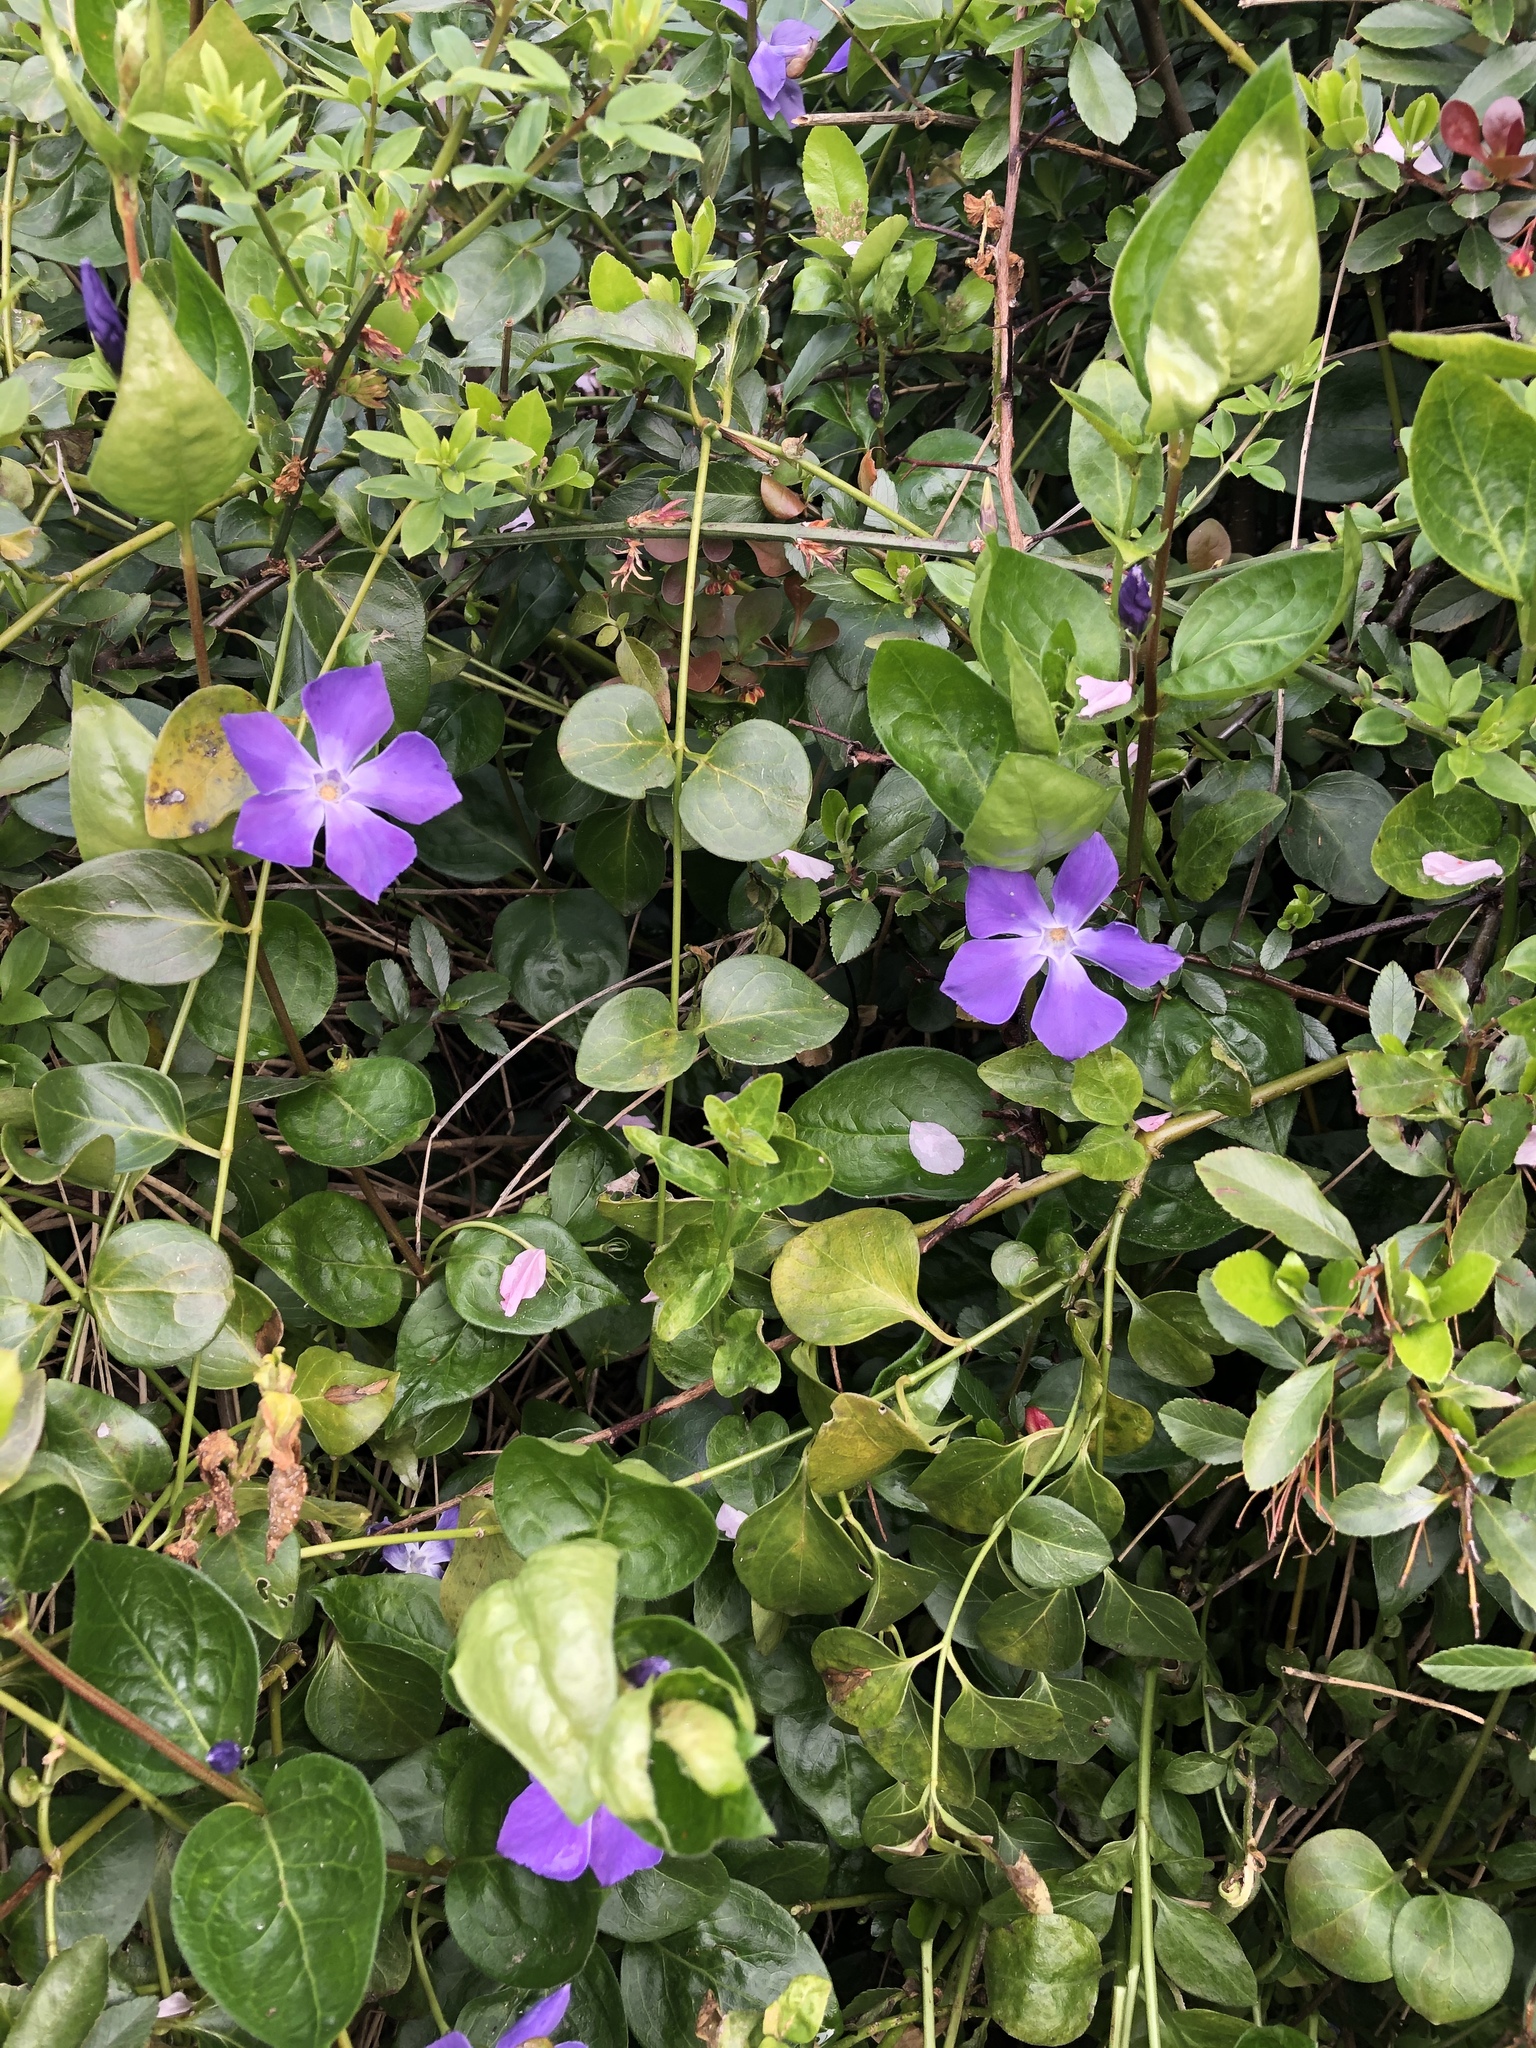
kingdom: Plantae
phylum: Tracheophyta
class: Magnoliopsida
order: Gentianales
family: Apocynaceae
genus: Vinca
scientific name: Vinca major
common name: Greater periwinkle
